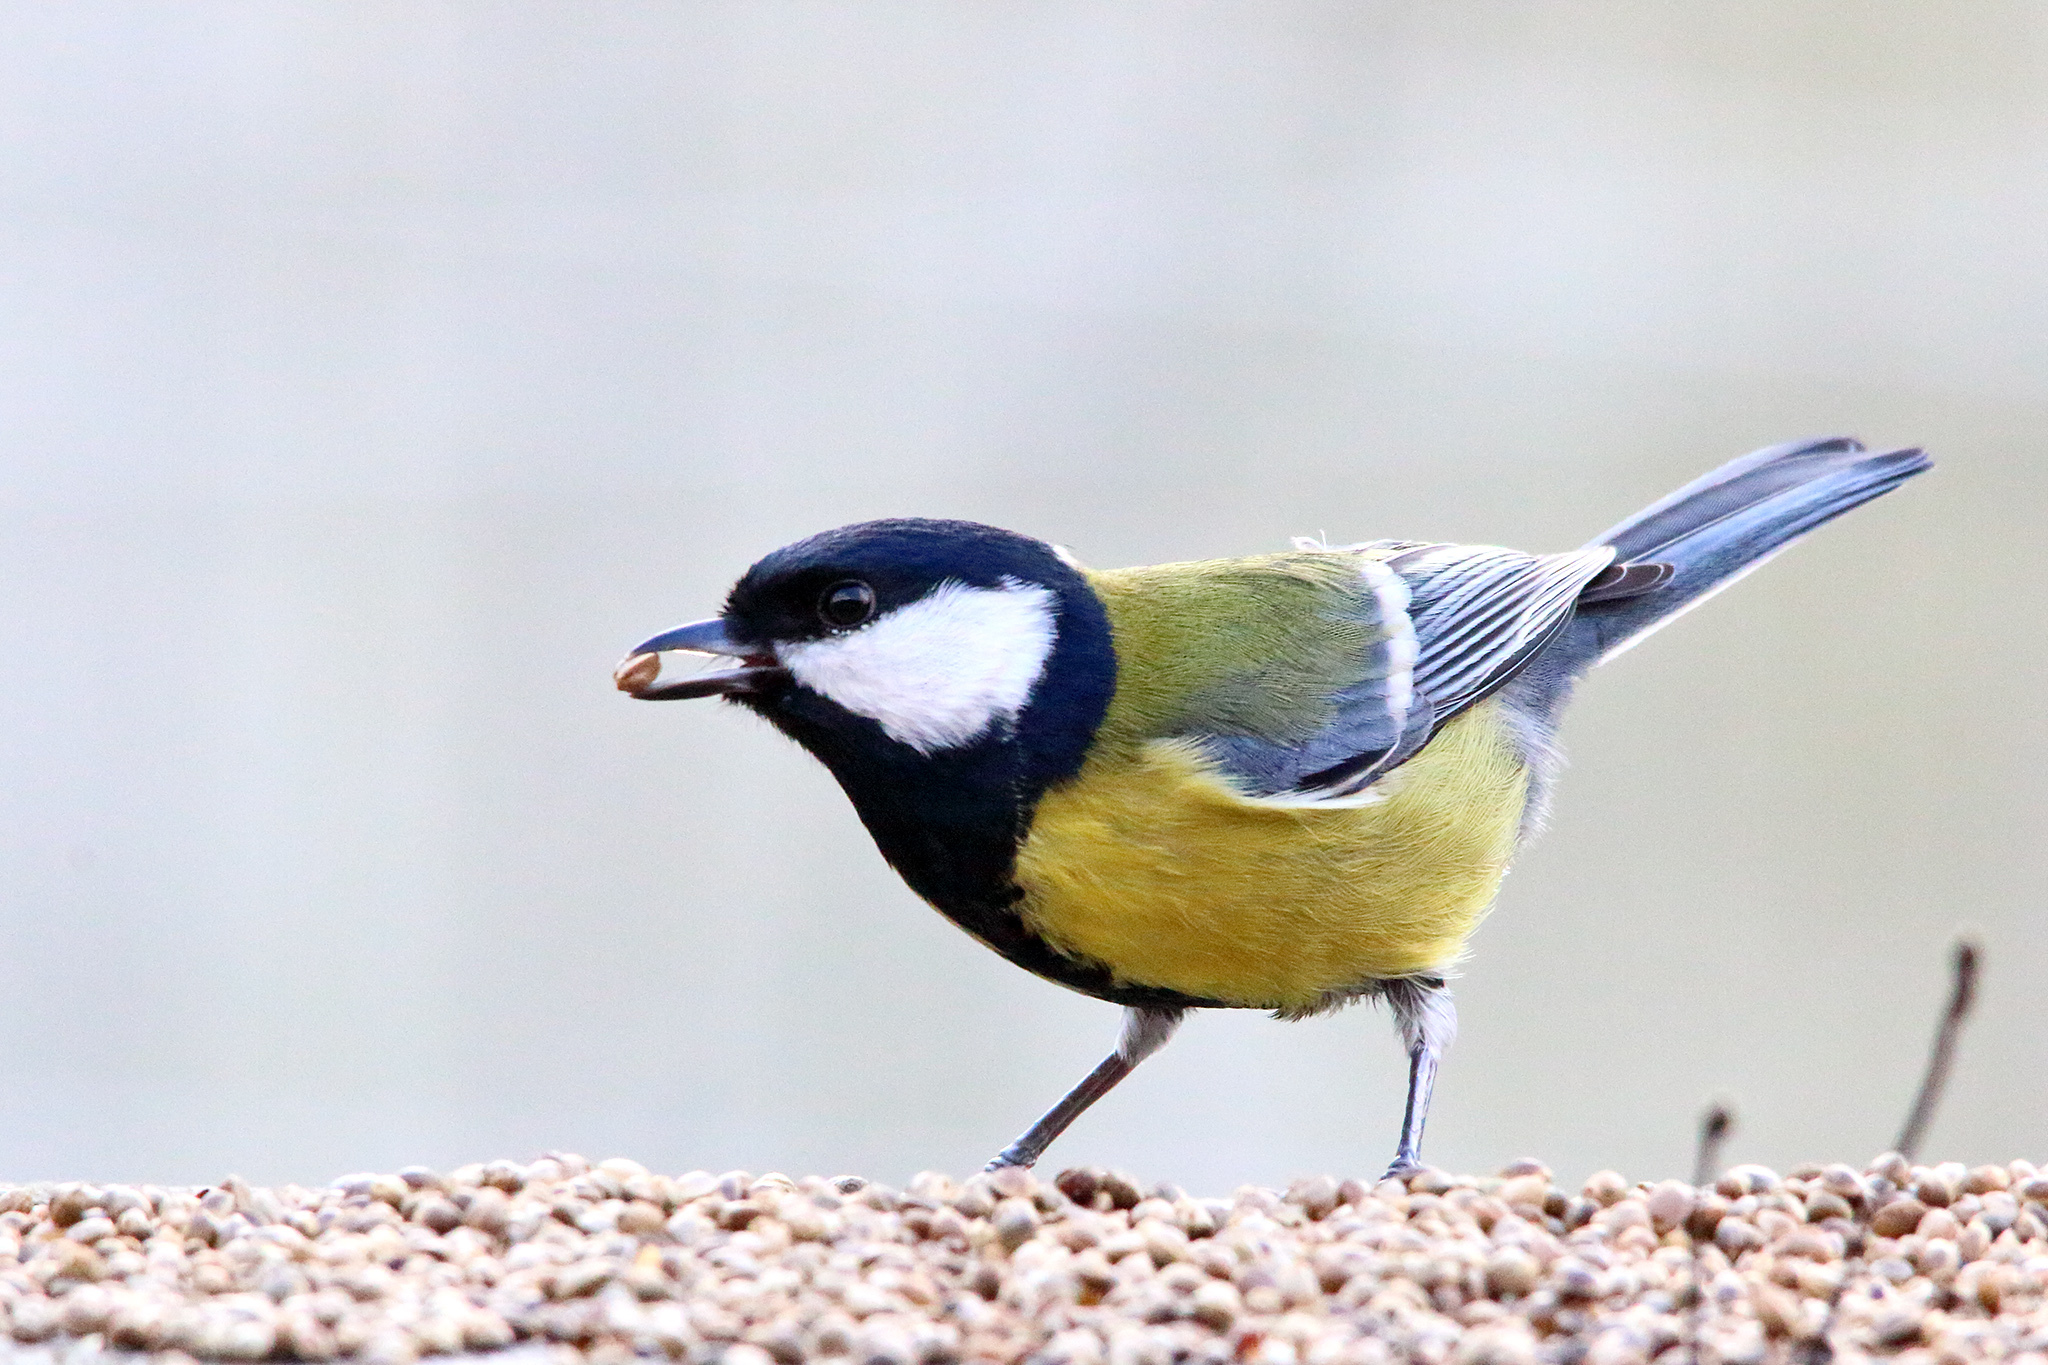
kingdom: Animalia
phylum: Chordata
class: Aves
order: Passeriformes
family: Paridae
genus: Parus
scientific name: Parus major
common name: Great tit
